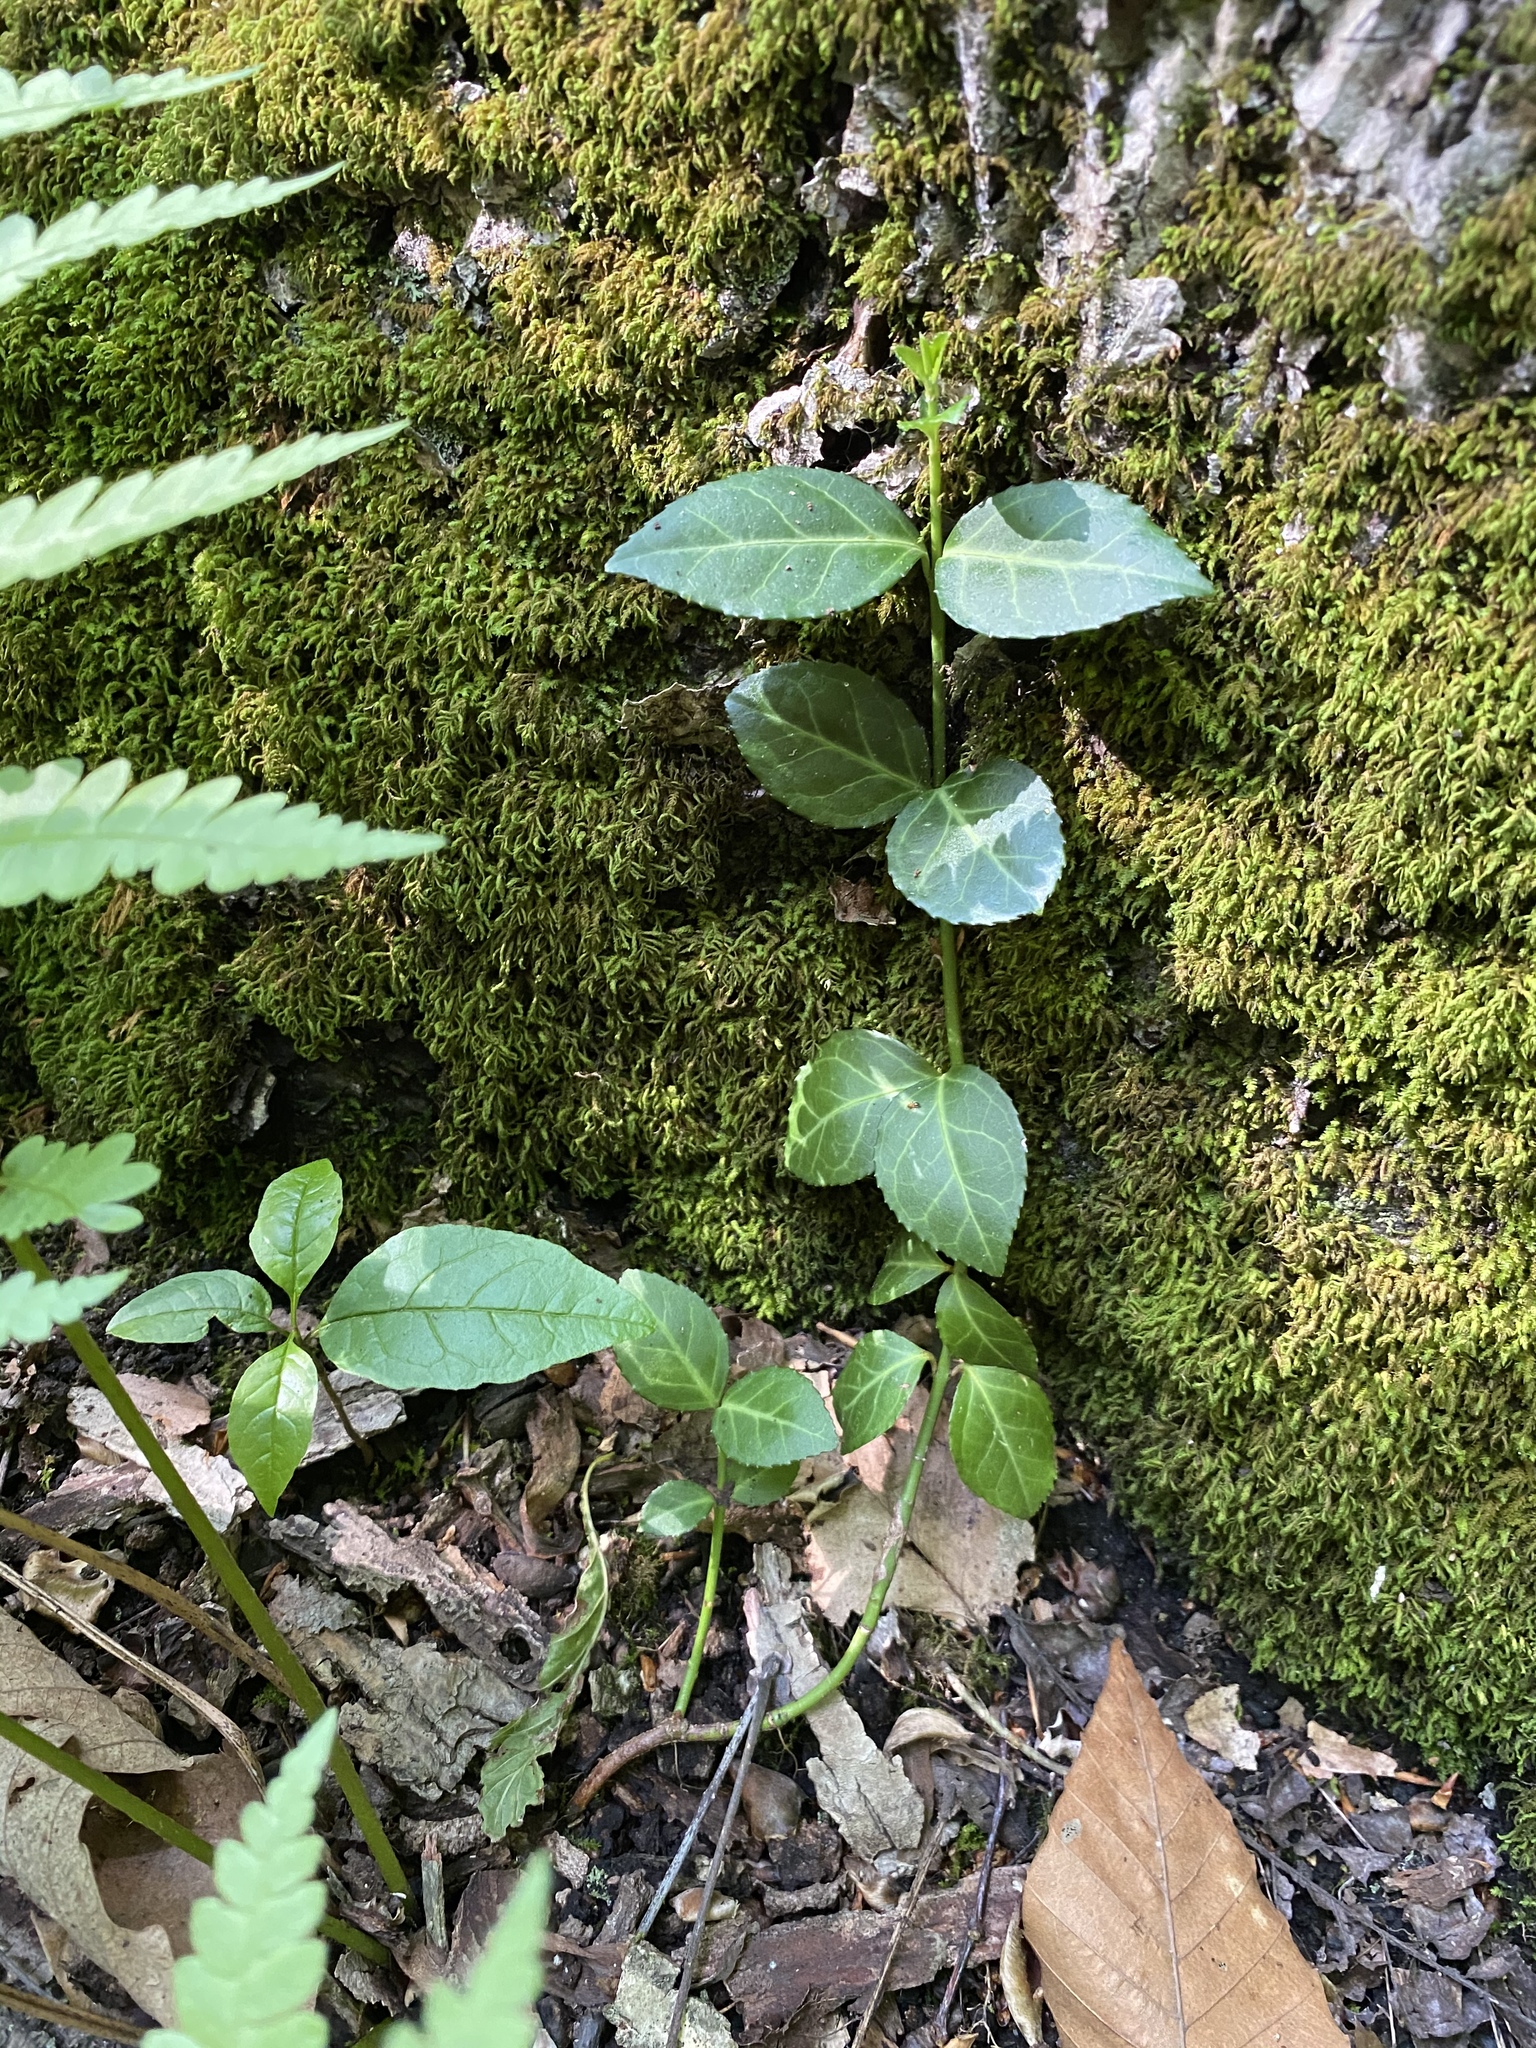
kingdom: Plantae
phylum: Tracheophyta
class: Magnoliopsida
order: Celastrales
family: Celastraceae
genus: Euonymus
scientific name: Euonymus fortunei
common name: Climbing euonymus
